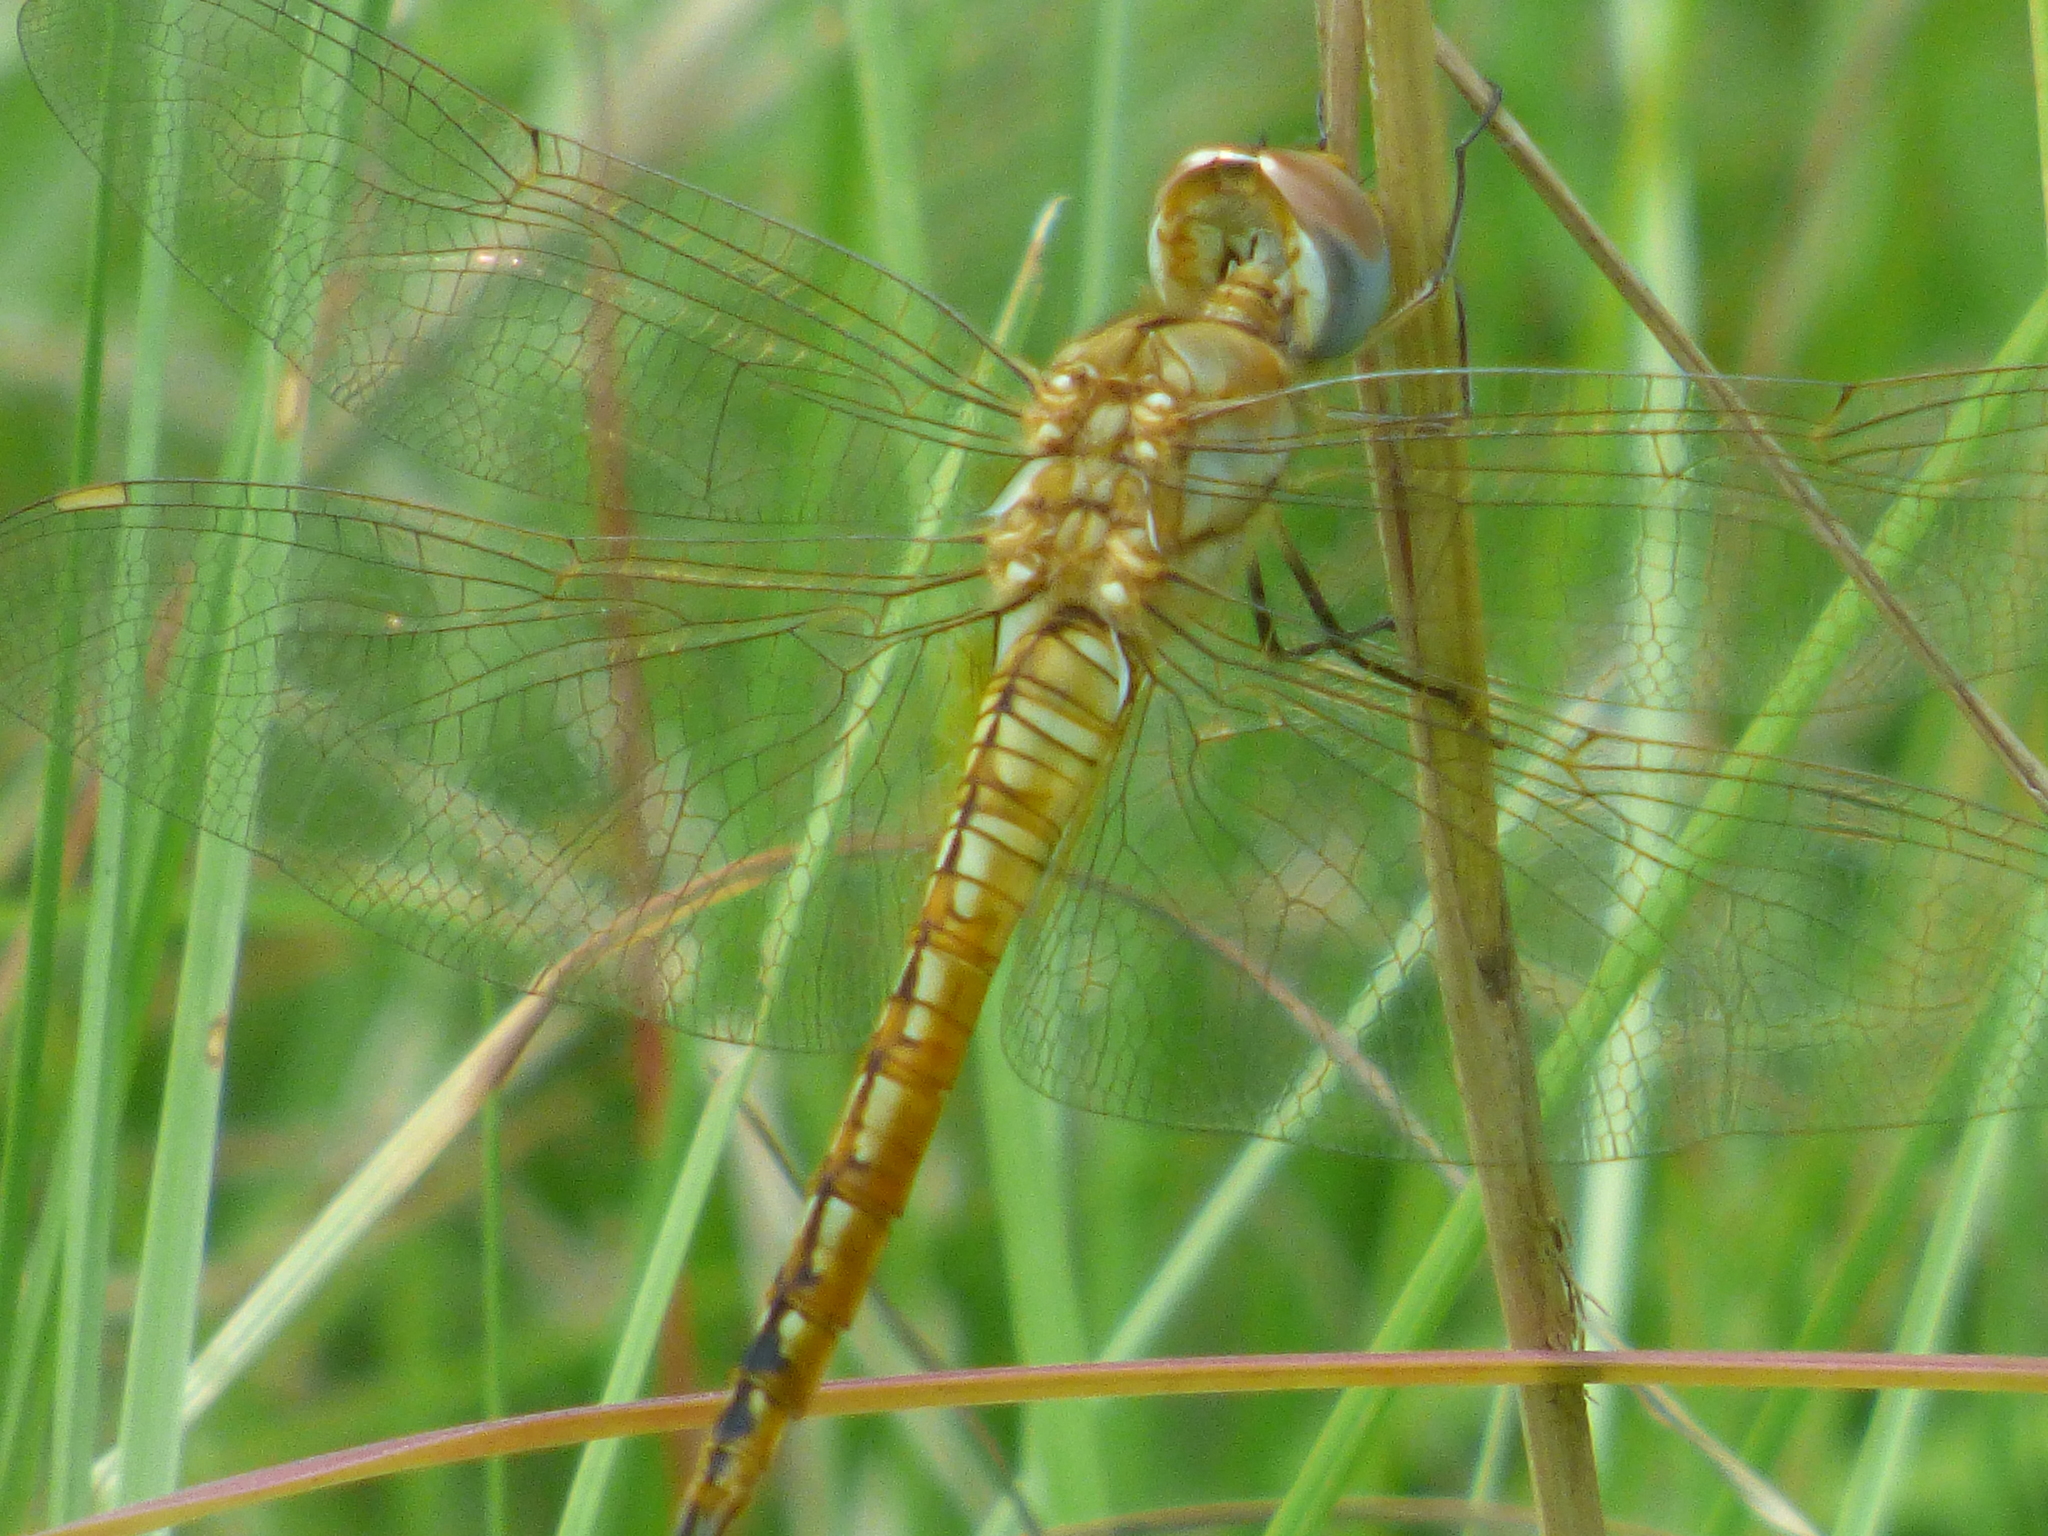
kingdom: Animalia
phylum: Arthropoda
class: Insecta
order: Odonata
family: Libellulidae
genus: Pantala
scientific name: Pantala flavescens
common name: Wandering glider
